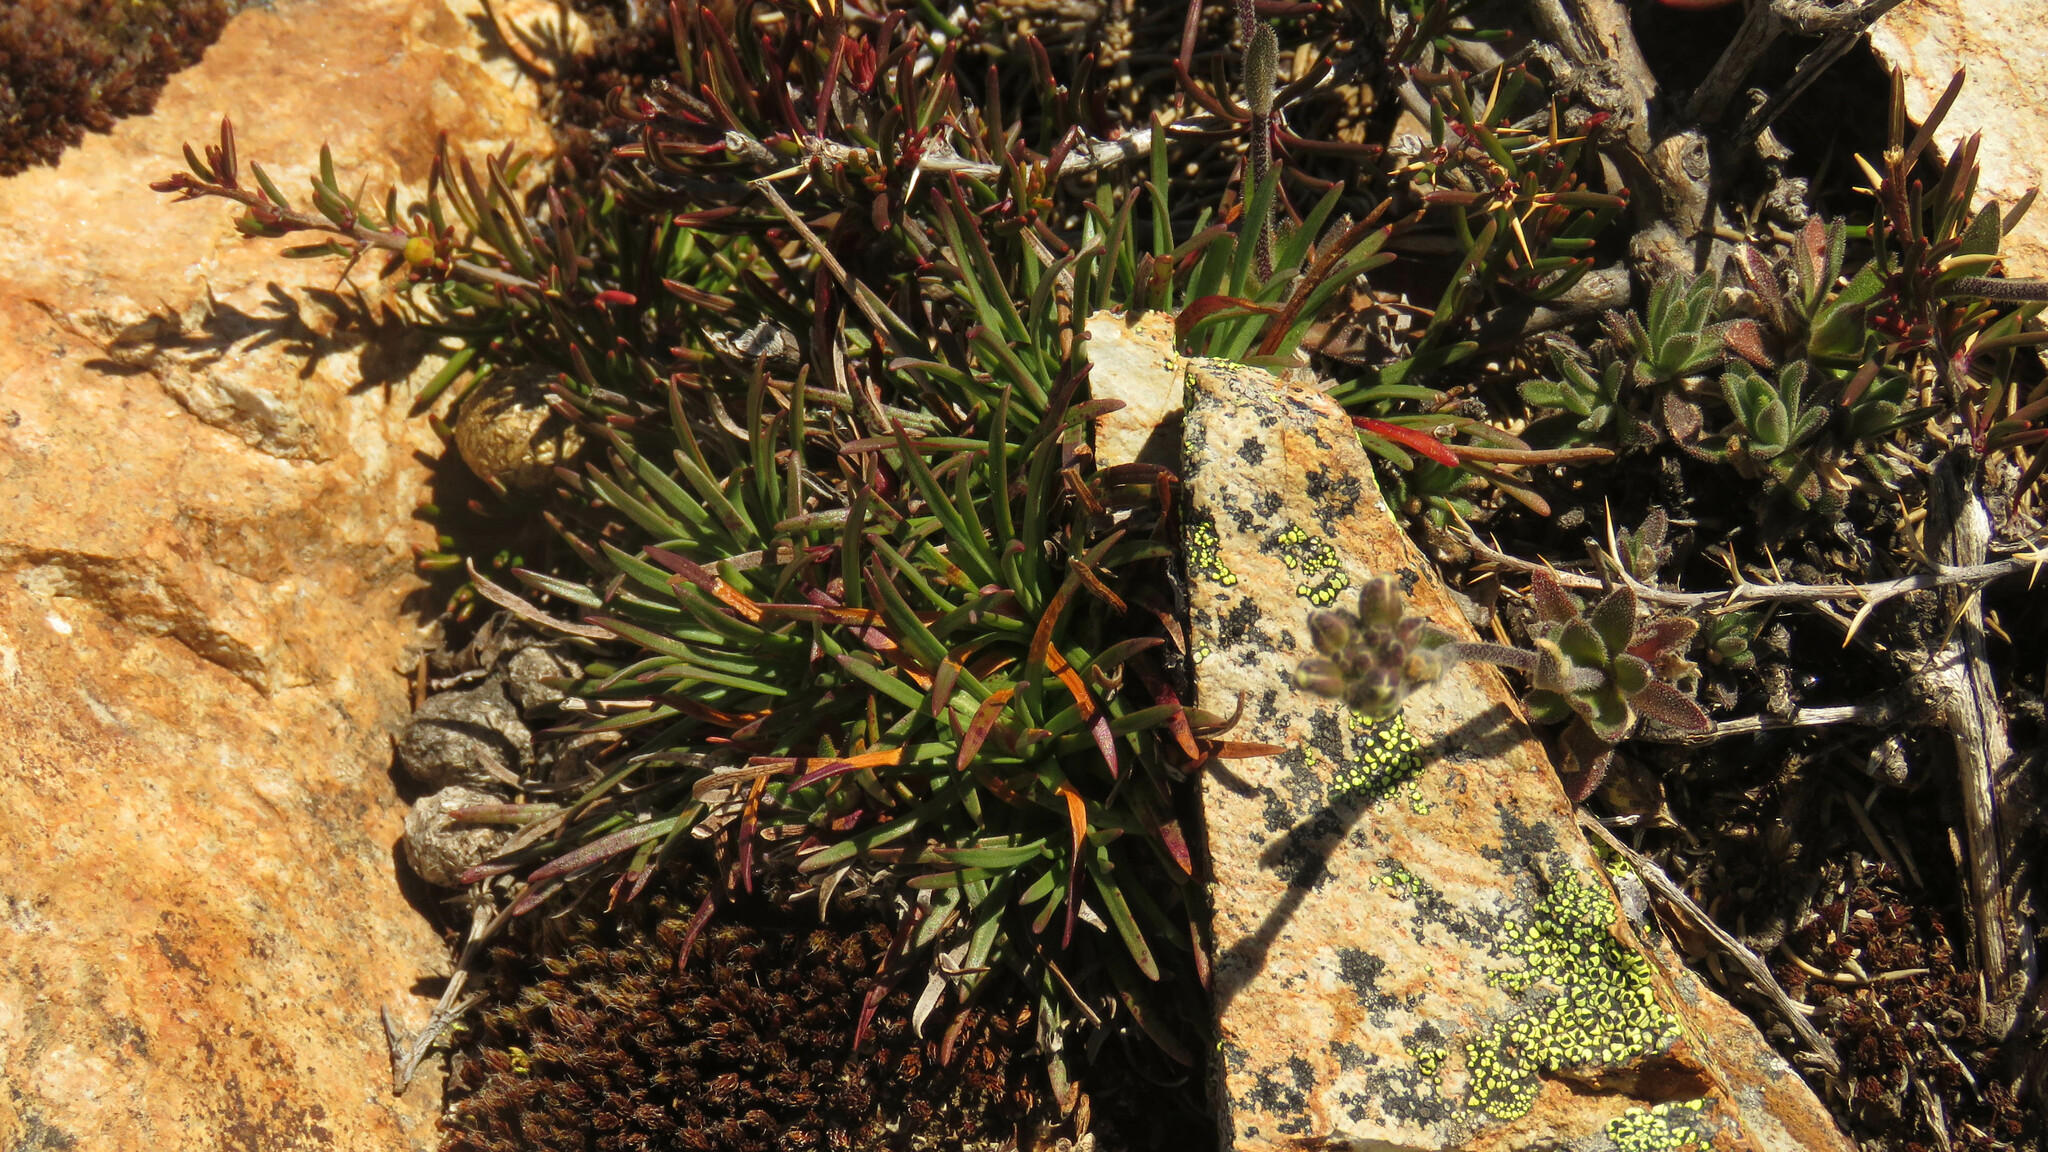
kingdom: Plantae
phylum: Tracheophyta
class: Magnoliopsida
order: Caryophyllales
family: Plumbaginaceae
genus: Armeria
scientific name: Armeria curvifolia
